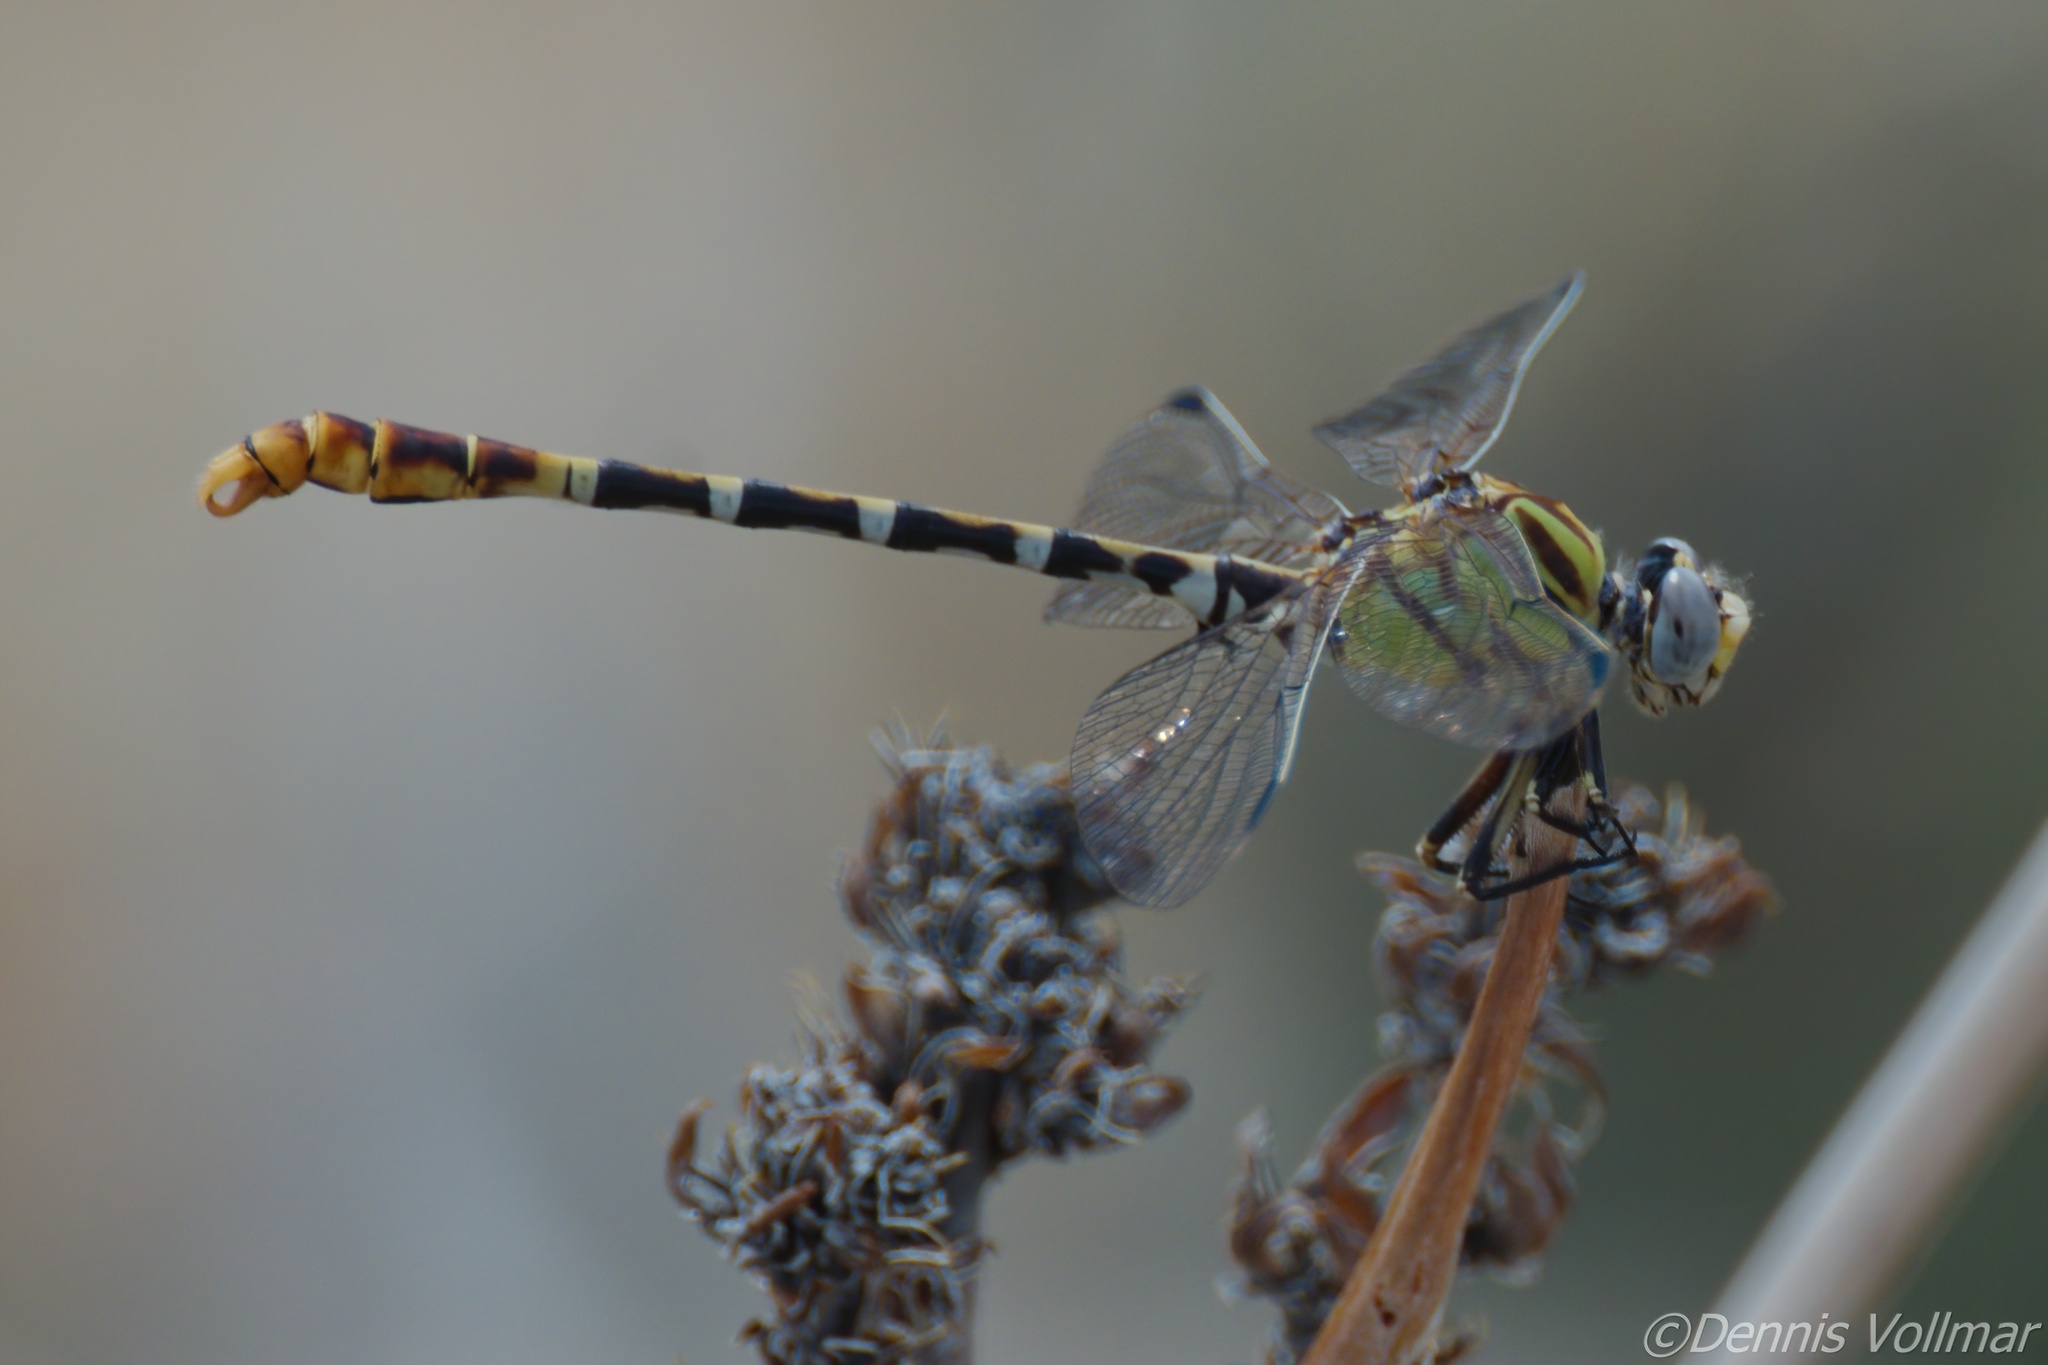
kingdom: Animalia
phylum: Arthropoda
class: Insecta
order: Odonata
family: Gomphidae
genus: Erpetogomphus
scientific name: Erpetogomphus designatus
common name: Eastern ringtail
